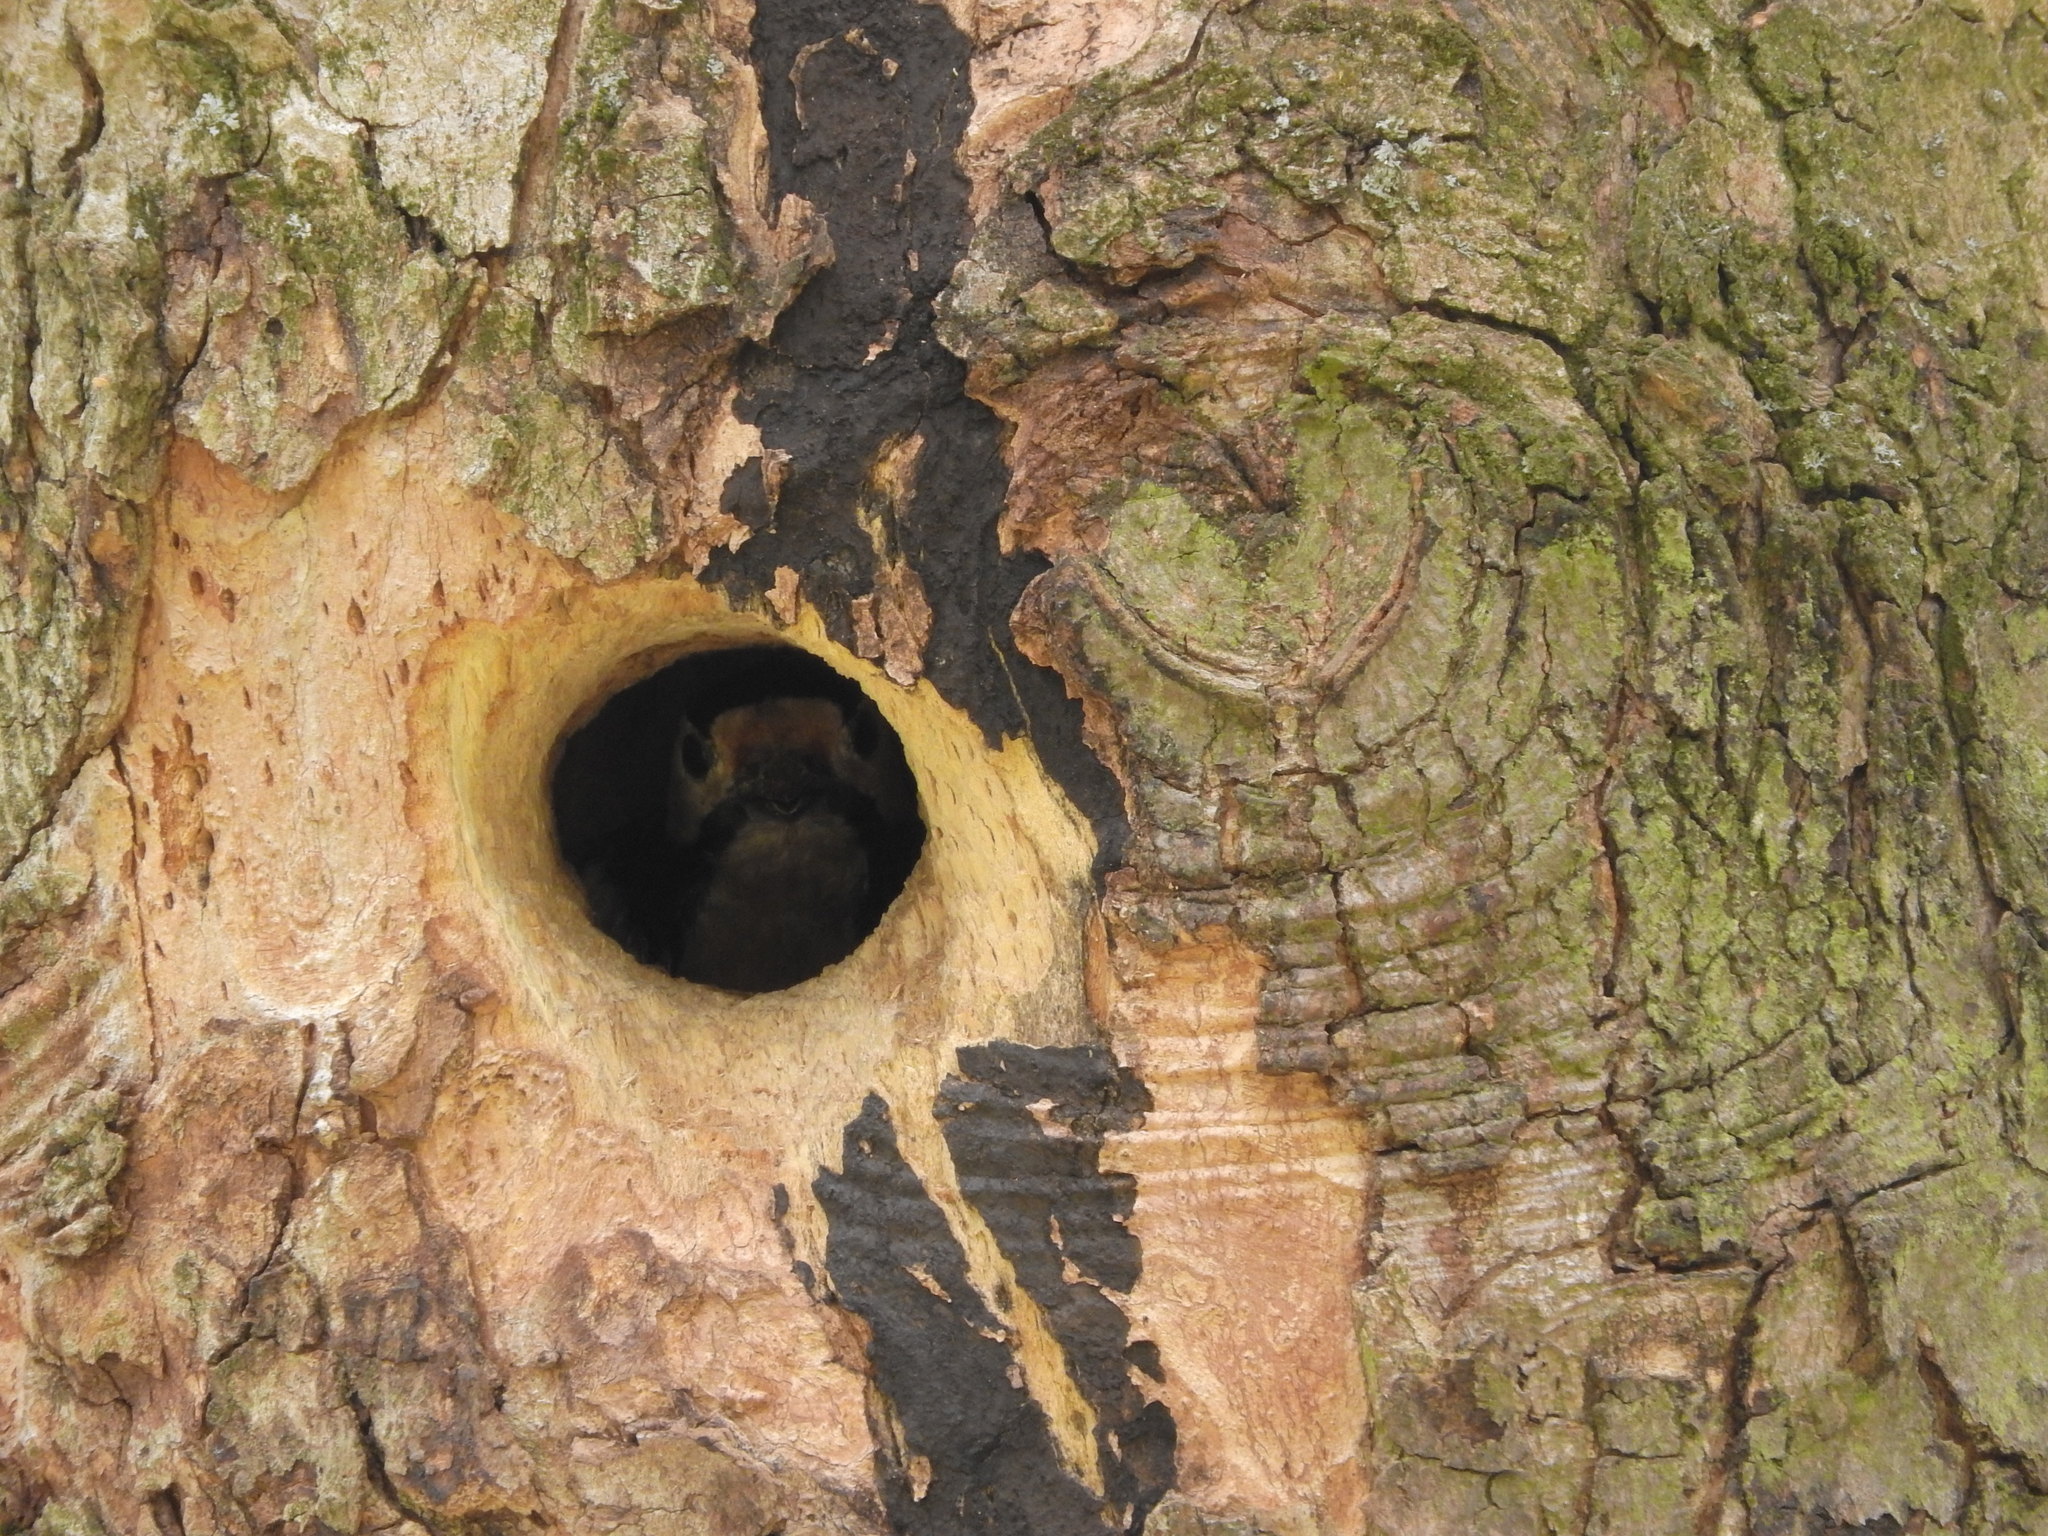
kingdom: Animalia
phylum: Chordata
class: Aves
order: Piciformes
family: Picidae
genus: Dendrocopos
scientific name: Dendrocopos major
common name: Great spotted woodpecker
